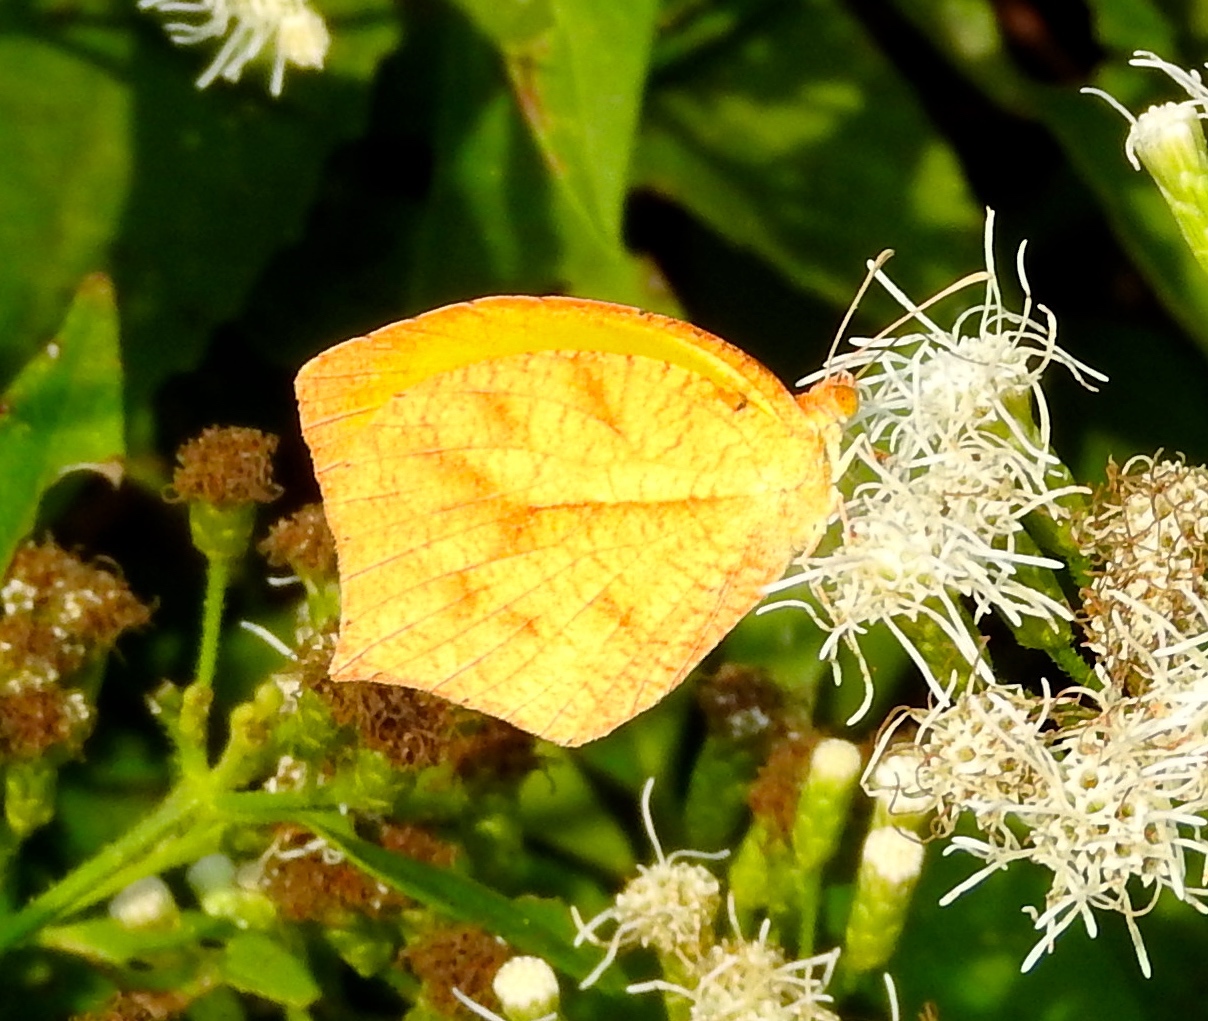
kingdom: Animalia
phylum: Arthropoda
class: Insecta
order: Lepidoptera
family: Pieridae
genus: Pyrisitia
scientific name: Pyrisitia proterpia
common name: Tailed orange
